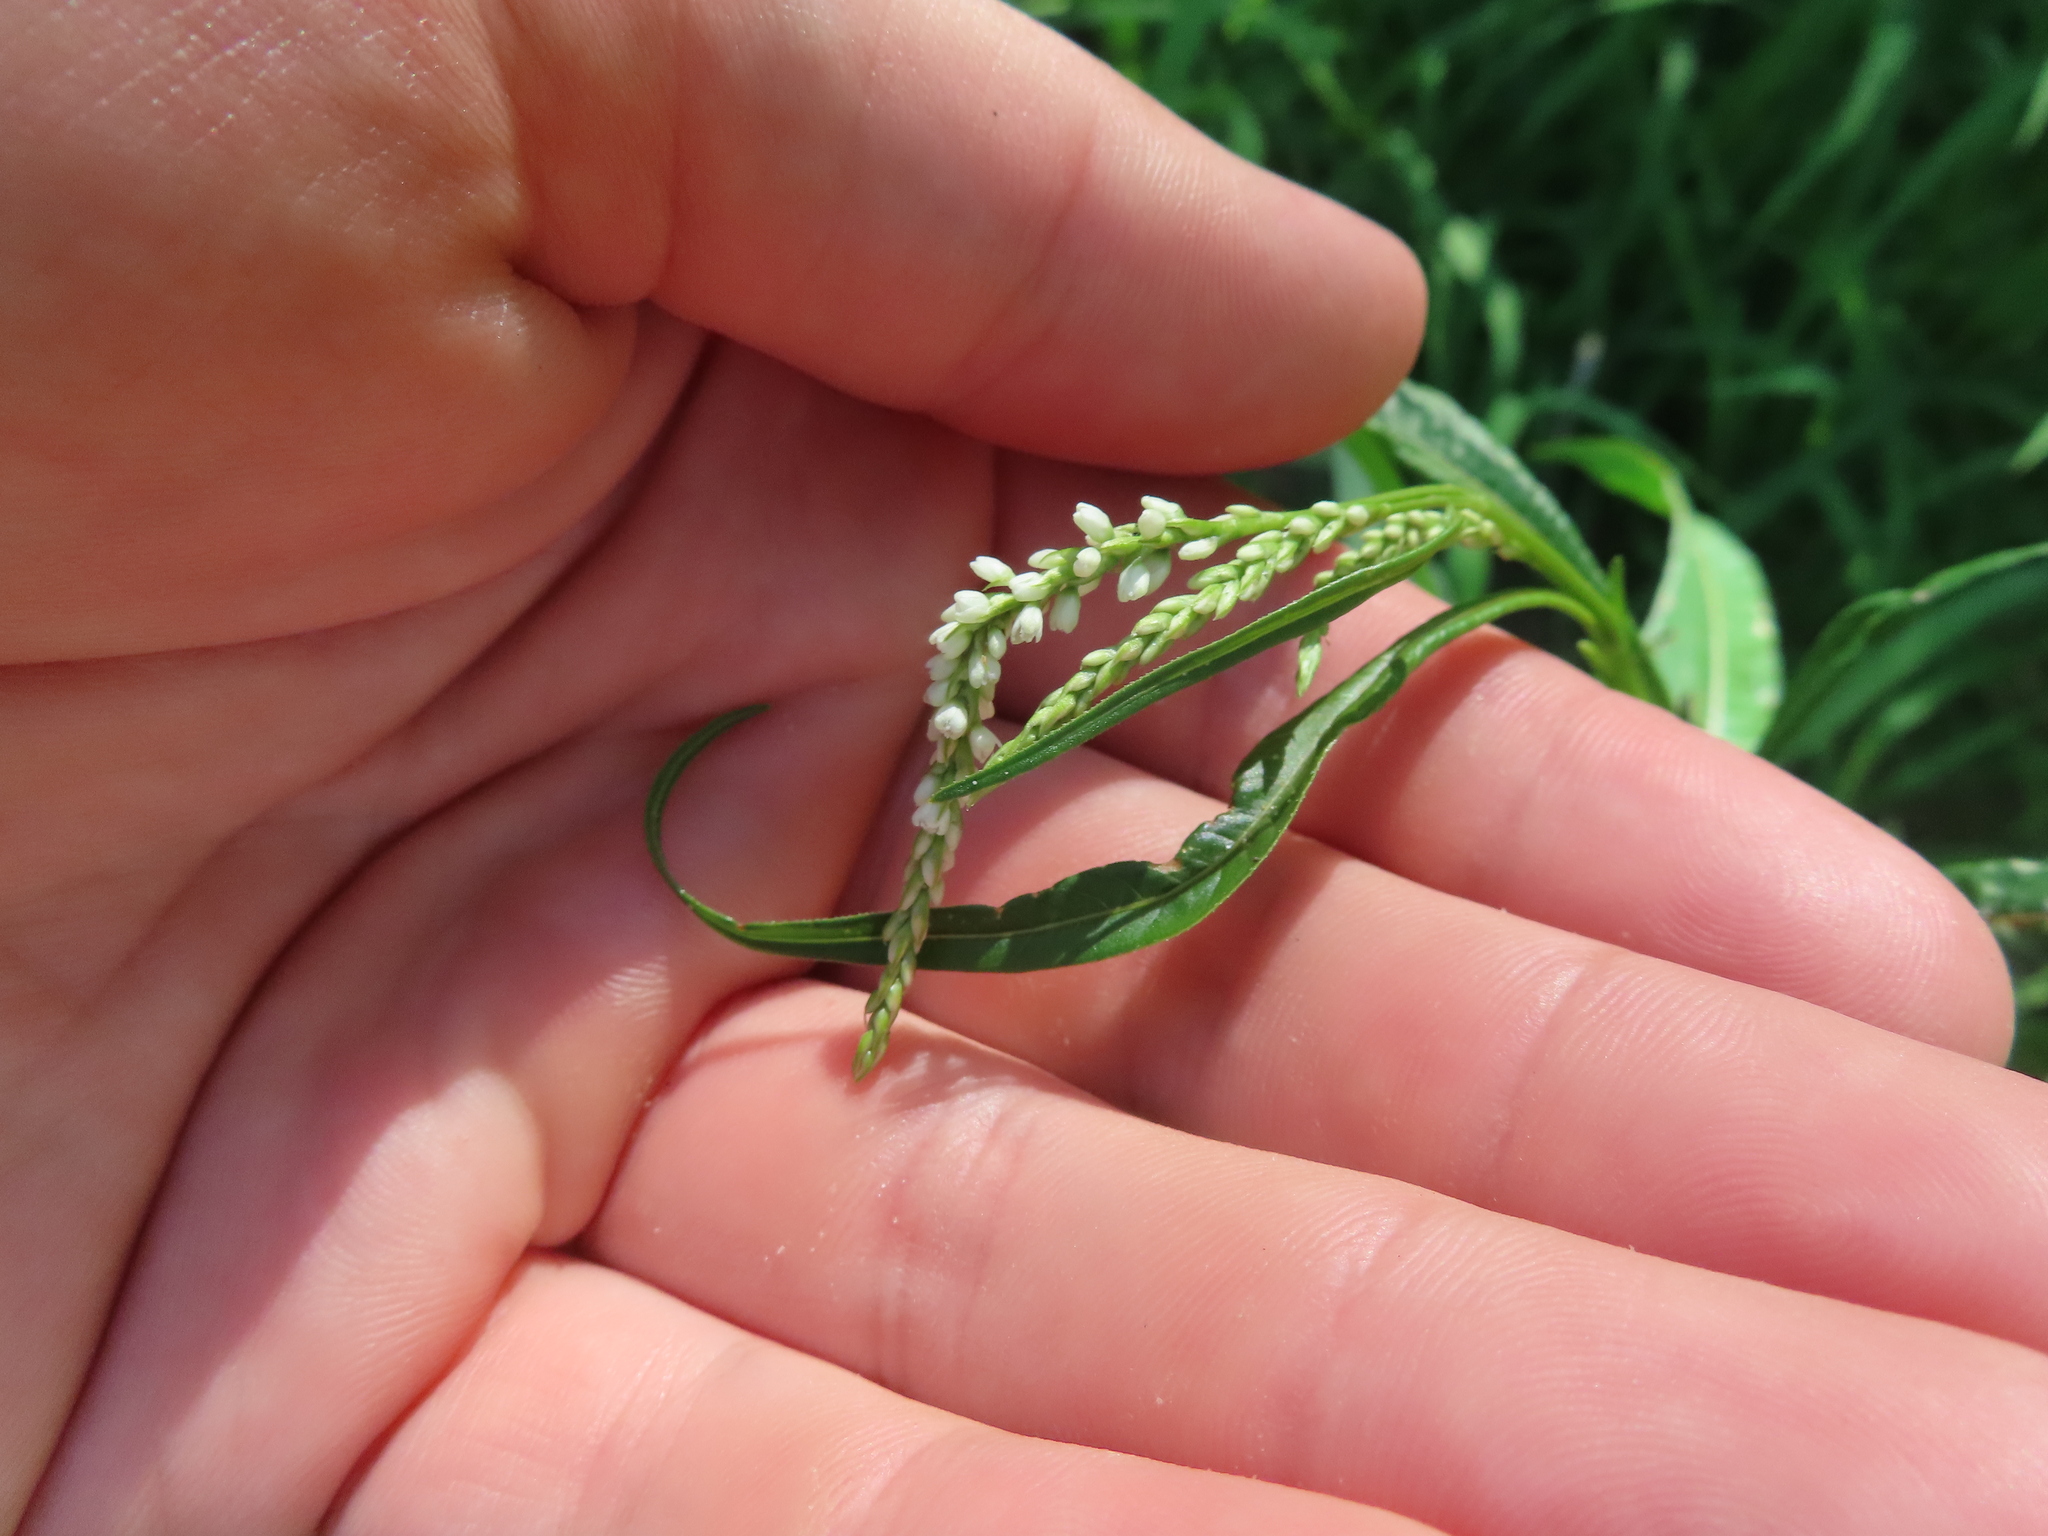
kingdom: Plantae
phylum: Tracheophyta
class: Magnoliopsida
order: Caryophyllales
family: Polygonaceae
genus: Persicaria
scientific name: Persicaria lapathifolia
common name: Curlytop knotweed
